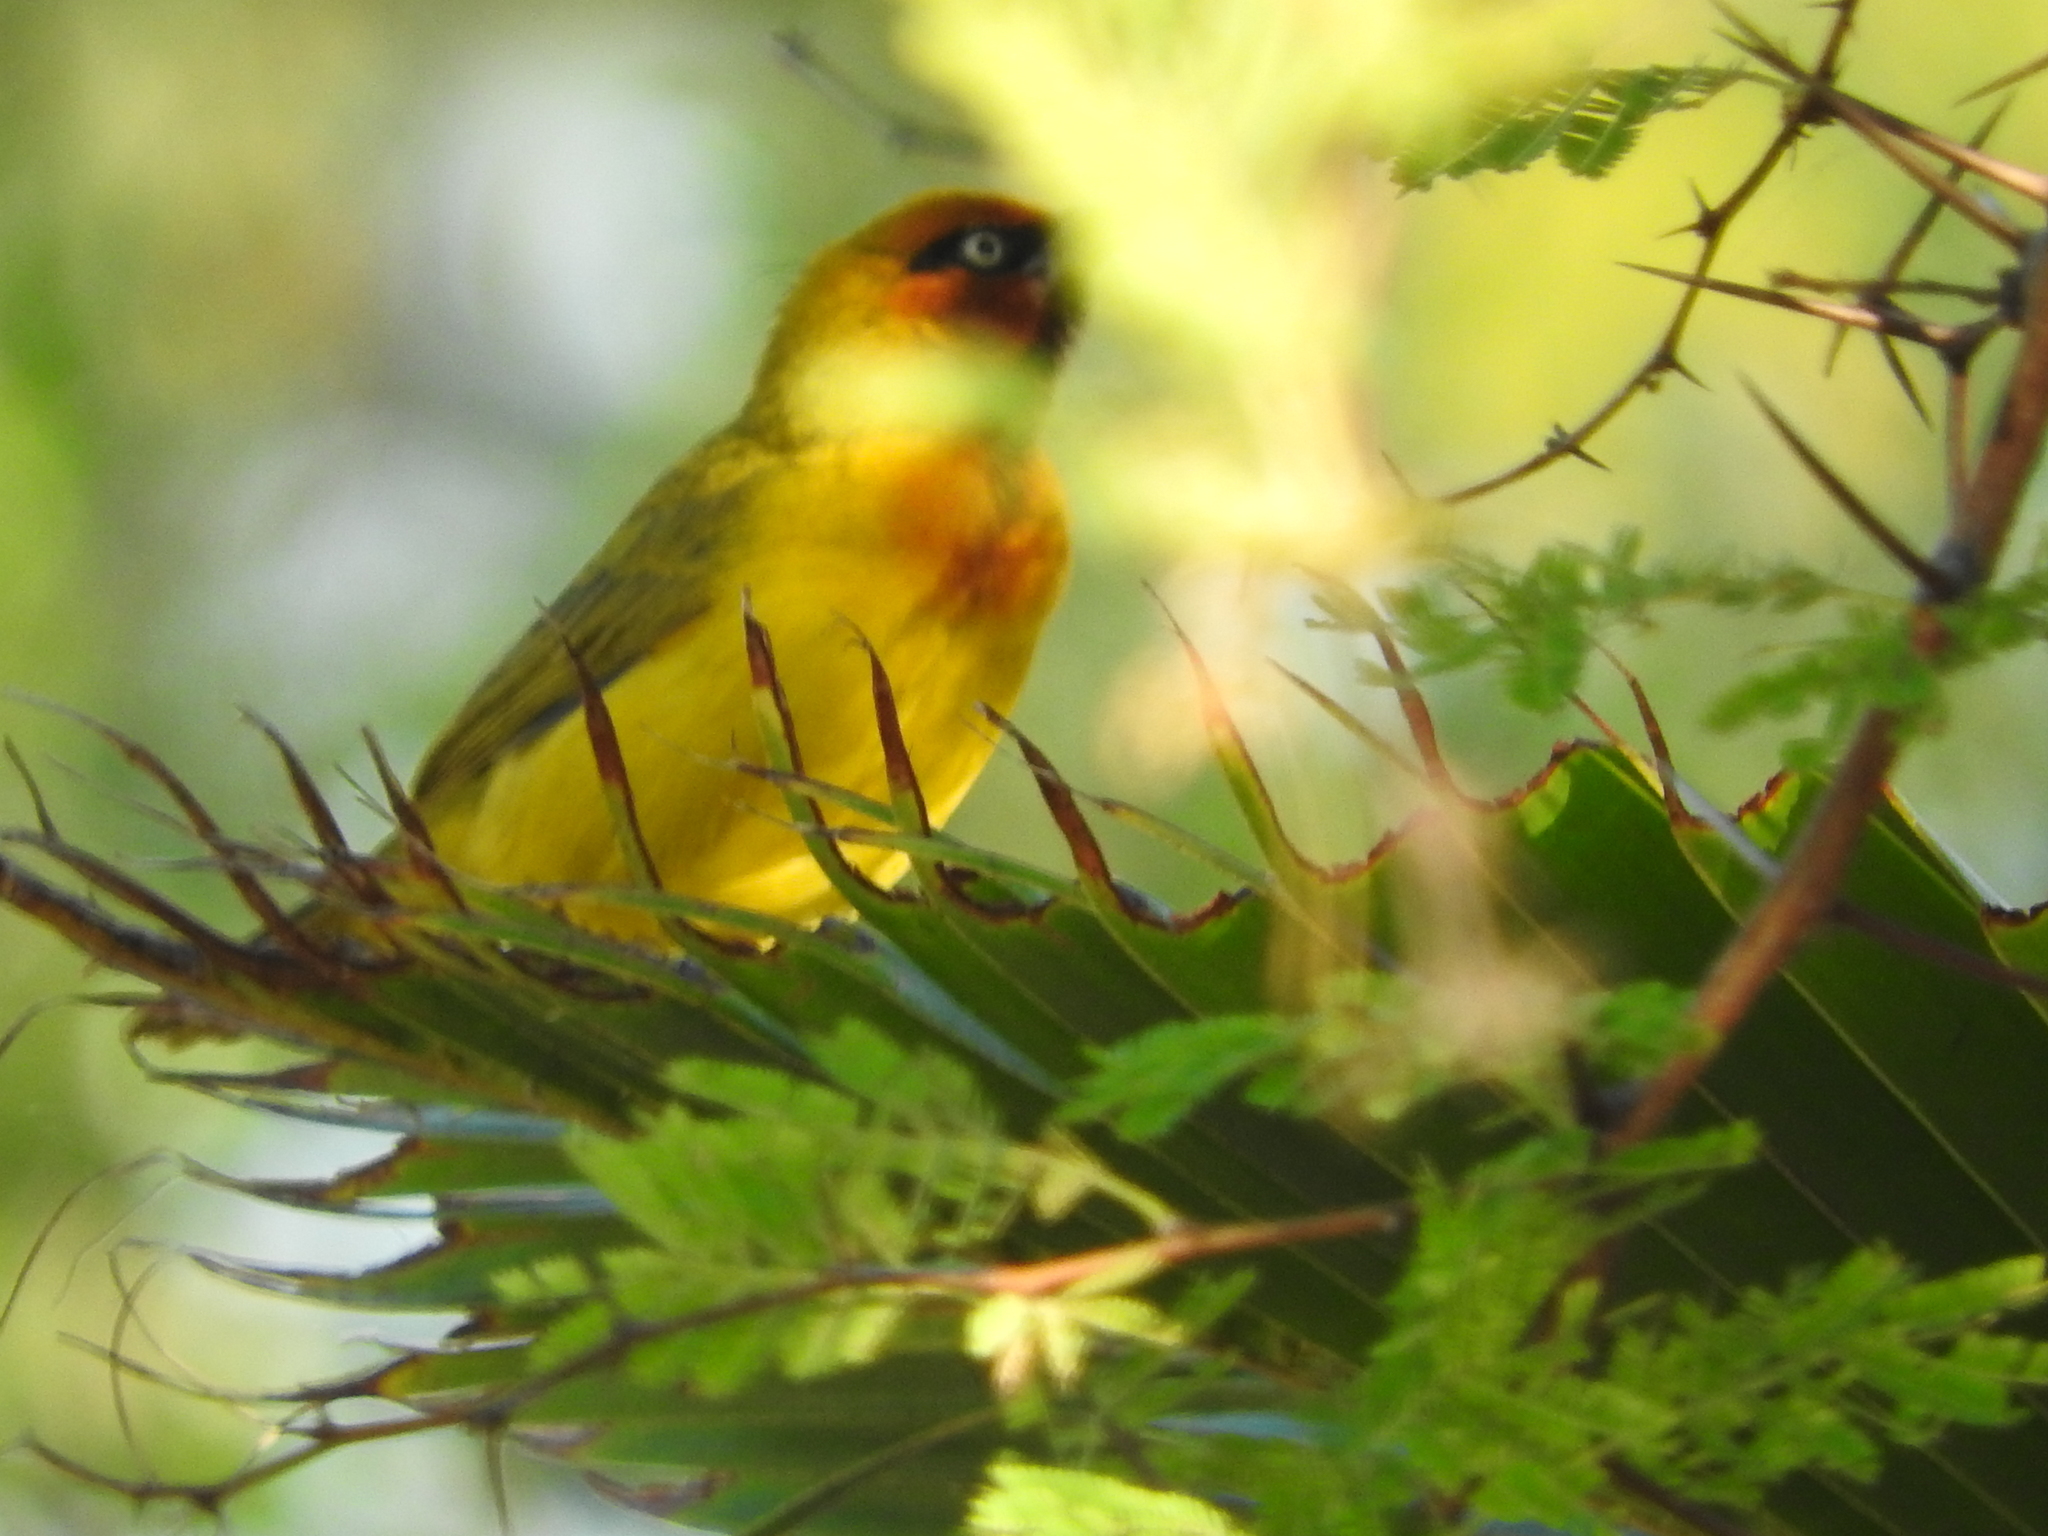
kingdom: Animalia
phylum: Chordata
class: Aves
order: Passeriformes
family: Ploceidae
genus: Ploceus
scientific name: Ploceus ocularis
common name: Spectacled weaver
